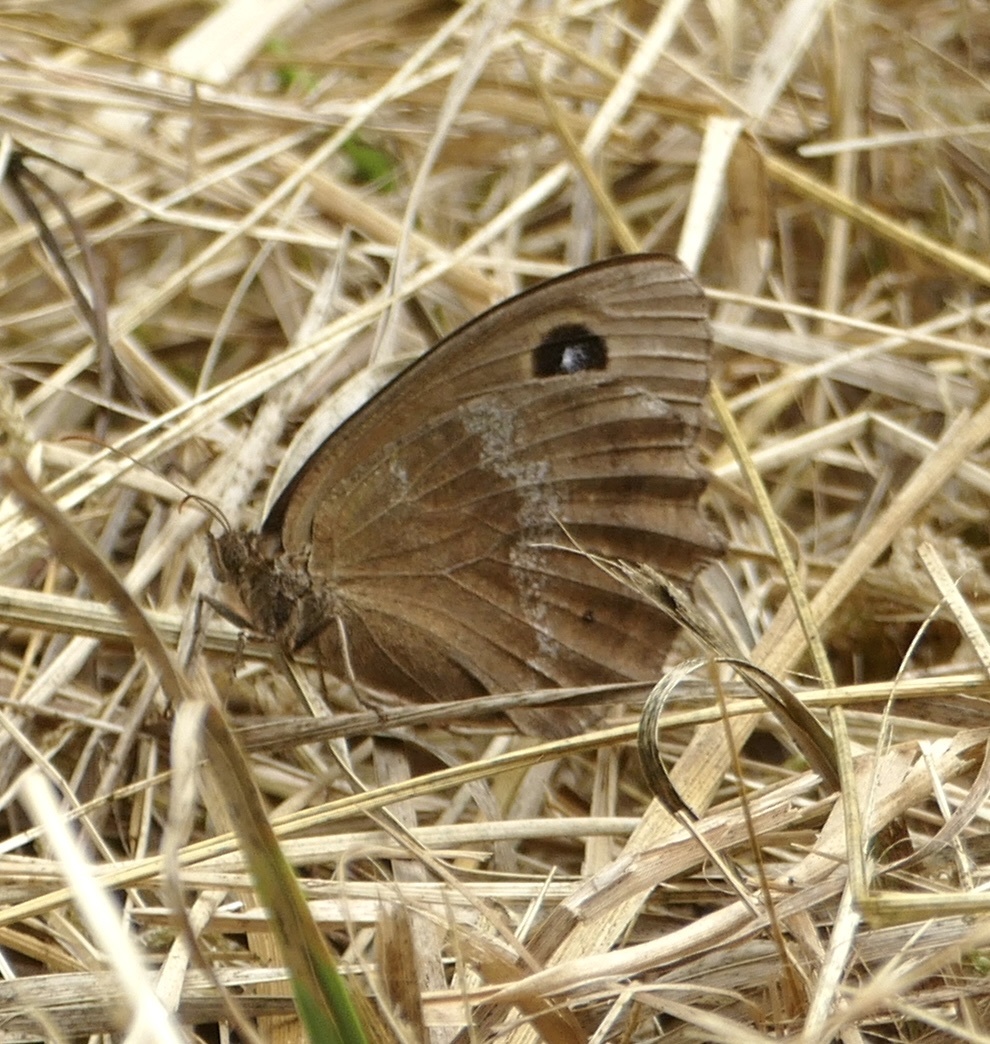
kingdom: Animalia
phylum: Arthropoda
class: Insecta
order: Lepidoptera
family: Nymphalidae
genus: Minois
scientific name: Minois dryas
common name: Dryad
